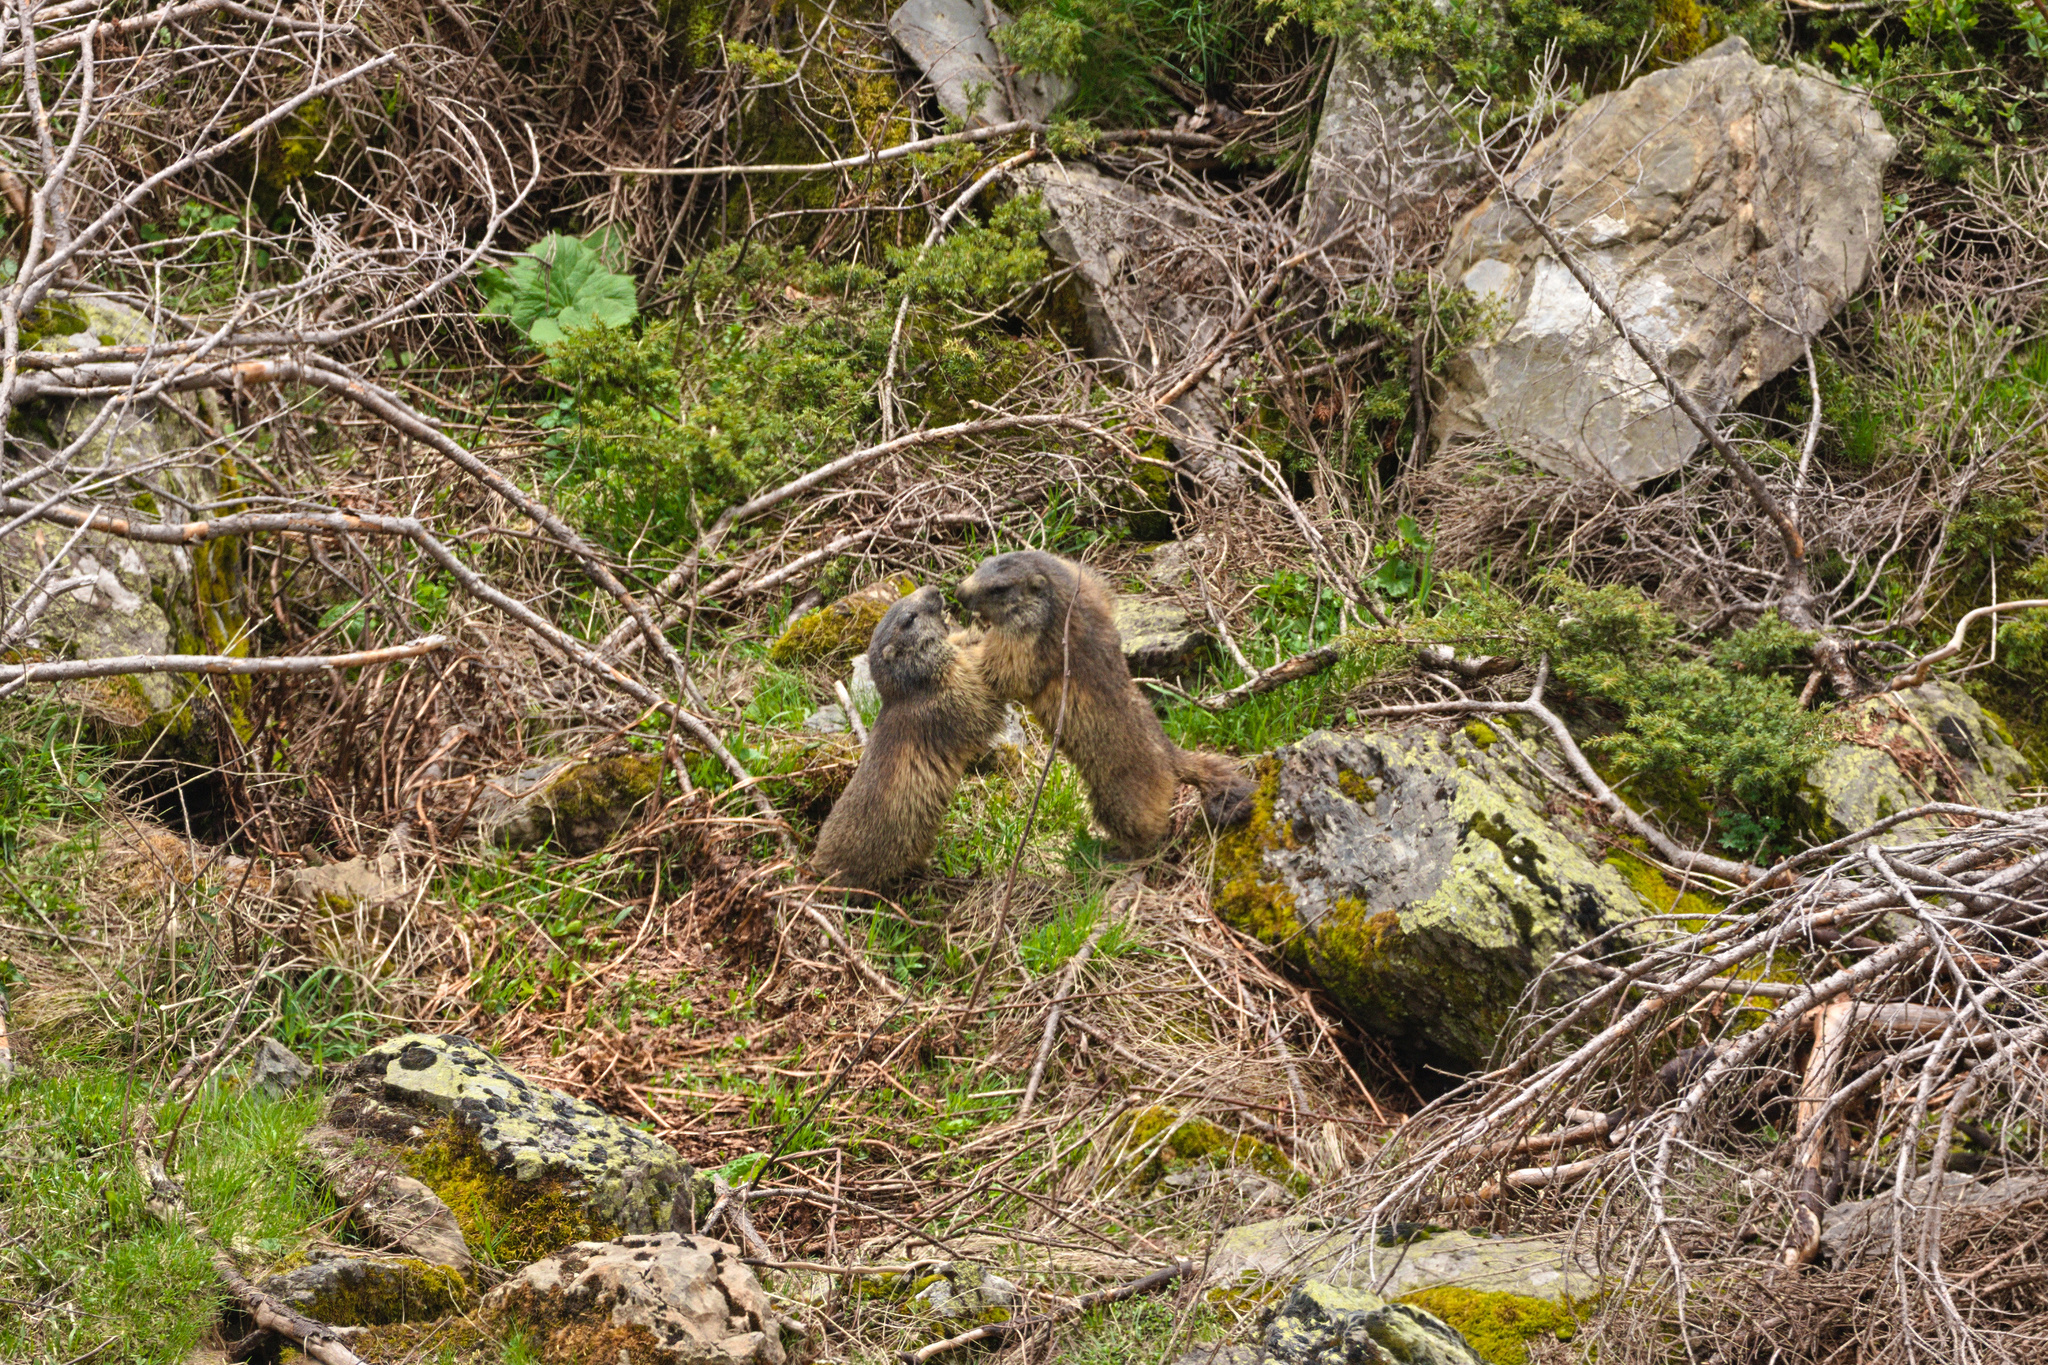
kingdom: Animalia
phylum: Chordata
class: Mammalia
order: Rodentia
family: Sciuridae
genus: Marmota
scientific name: Marmota marmota
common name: Alpine marmot
